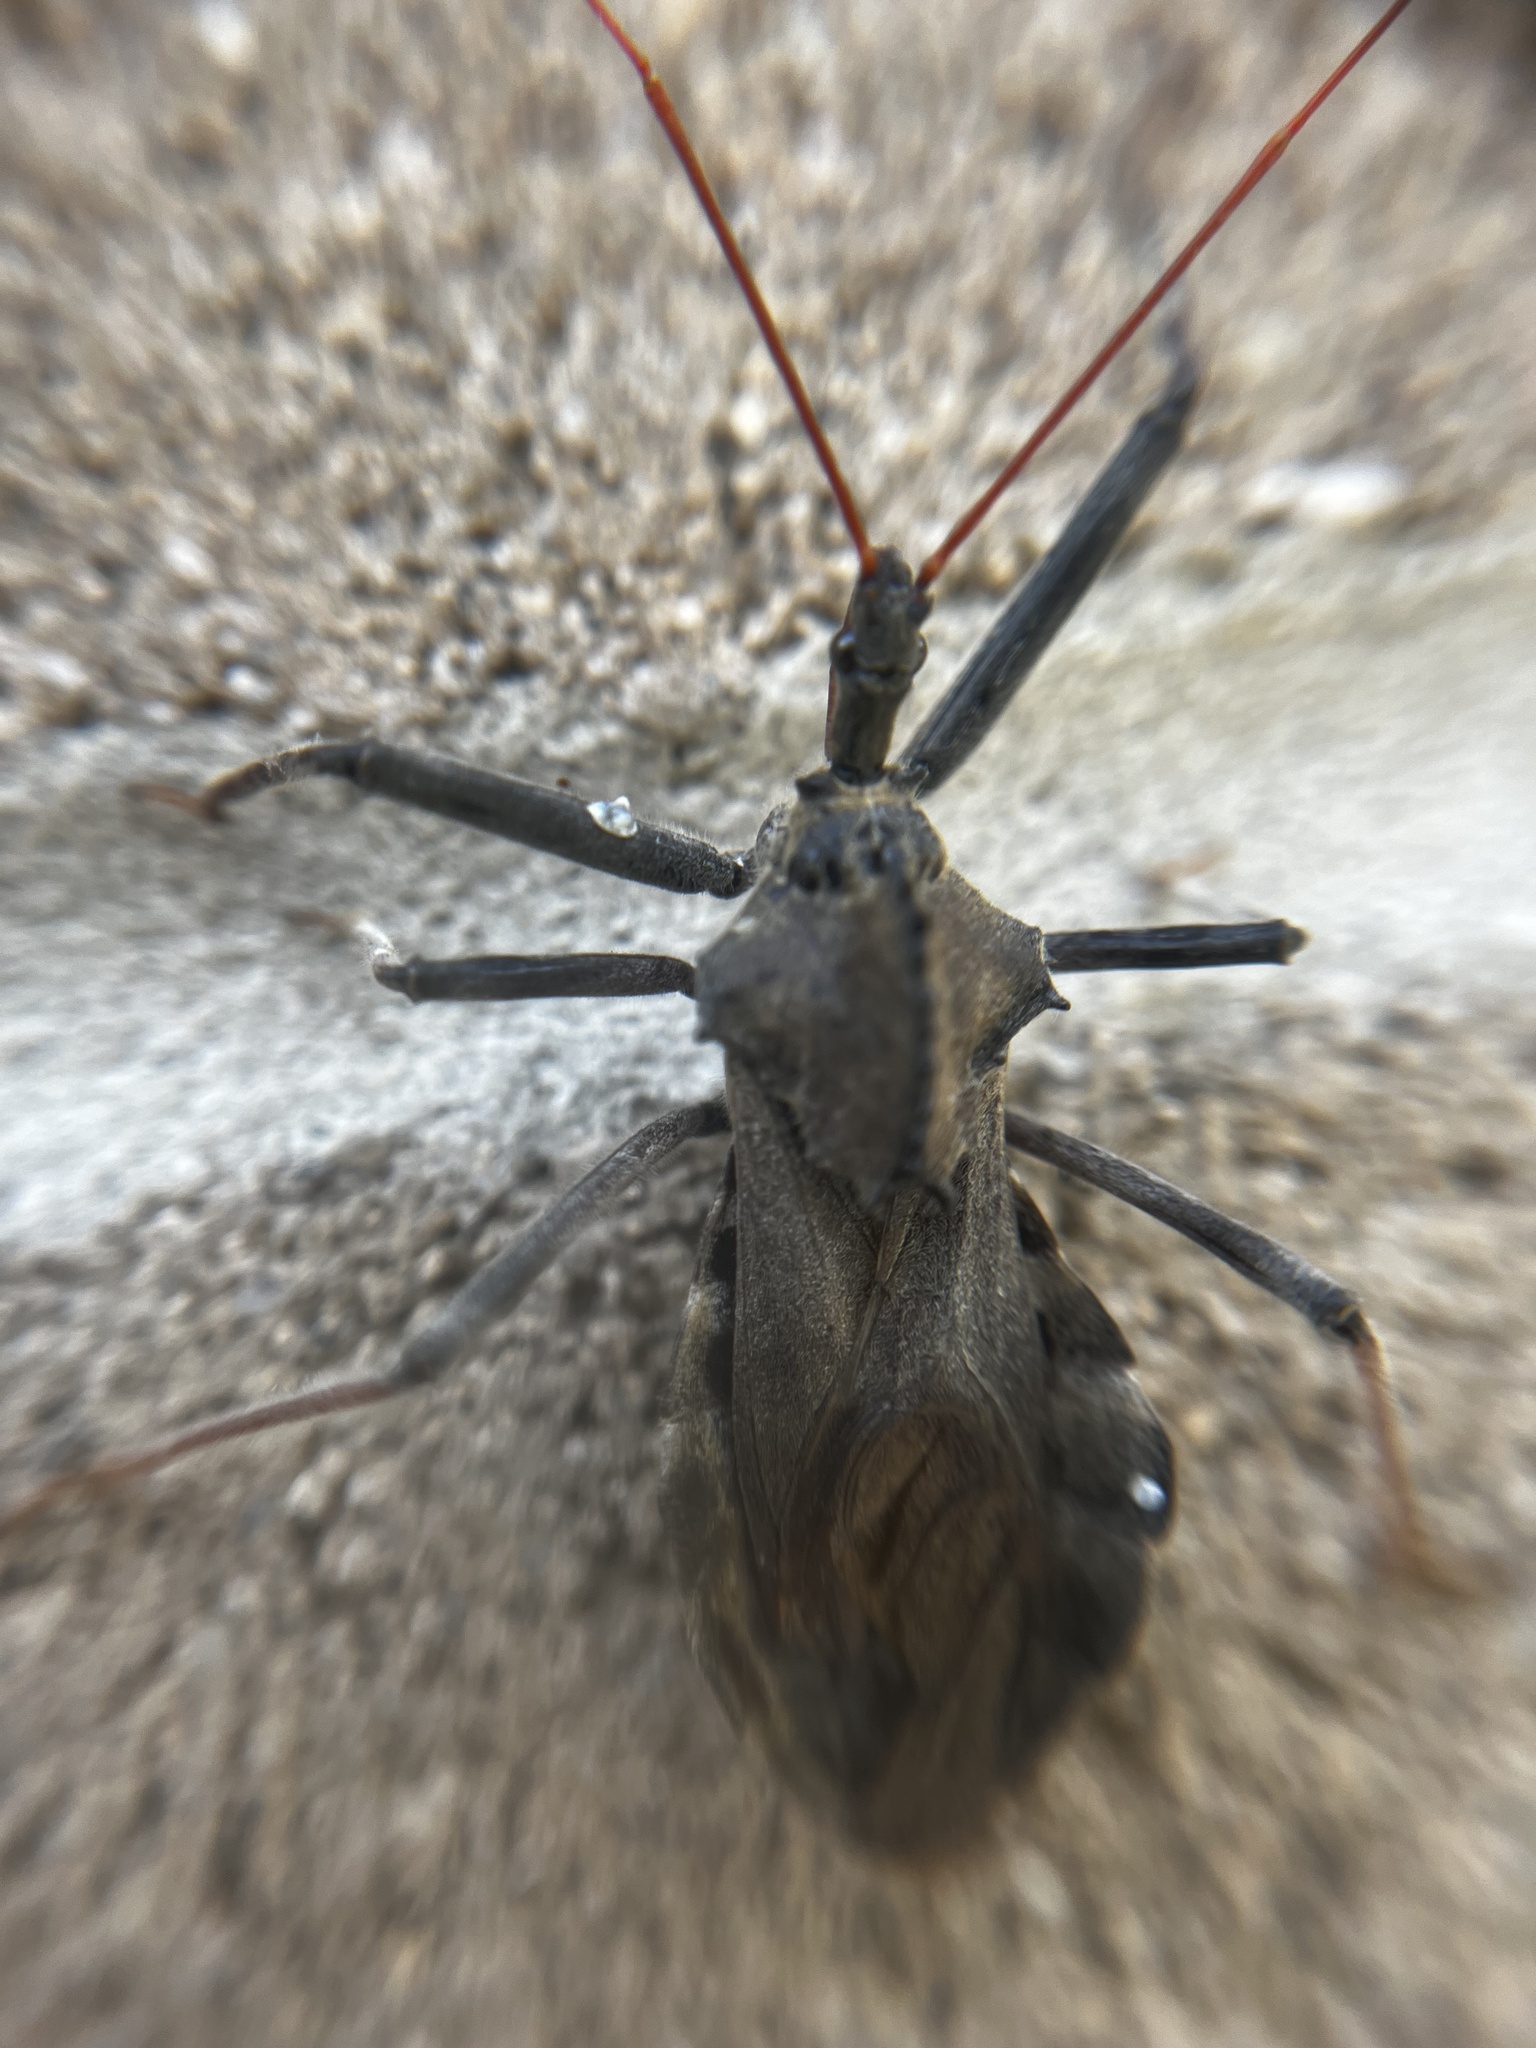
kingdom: Animalia
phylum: Arthropoda
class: Insecta
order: Hemiptera
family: Reduviidae
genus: Arilus
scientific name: Arilus cristatus
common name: North american wheel bug
